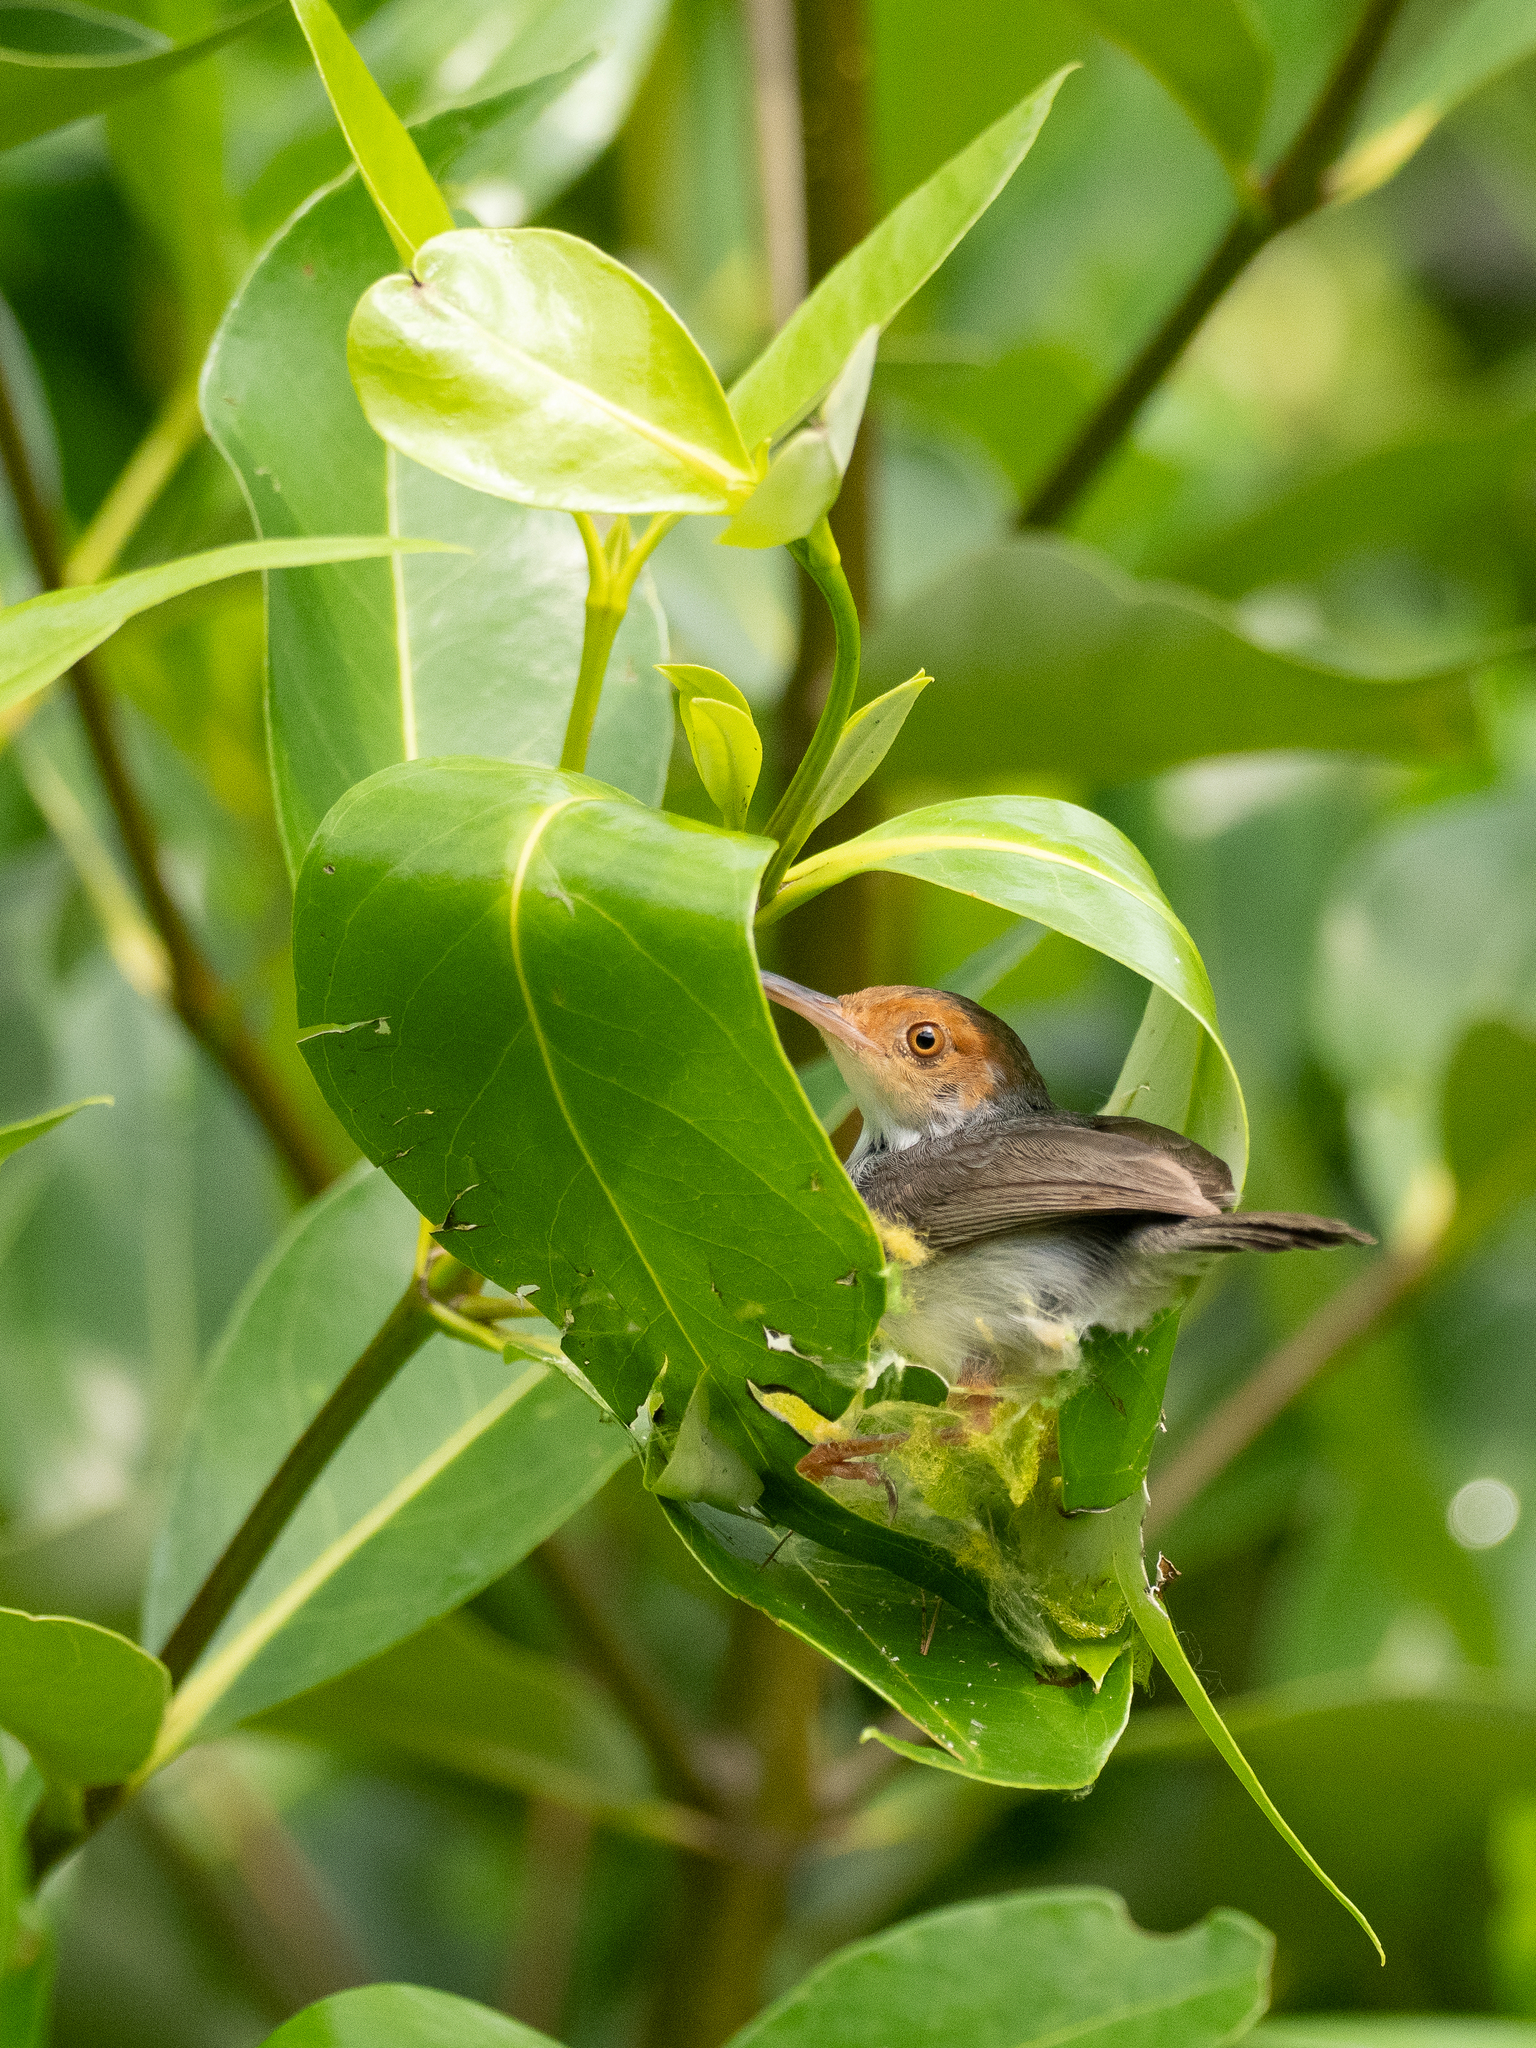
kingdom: Animalia
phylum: Chordata
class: Aves
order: Passeriformes
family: Cisticolidae
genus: Orthotomus
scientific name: Orthotomus ruficeps
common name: Ashy tailorbird
